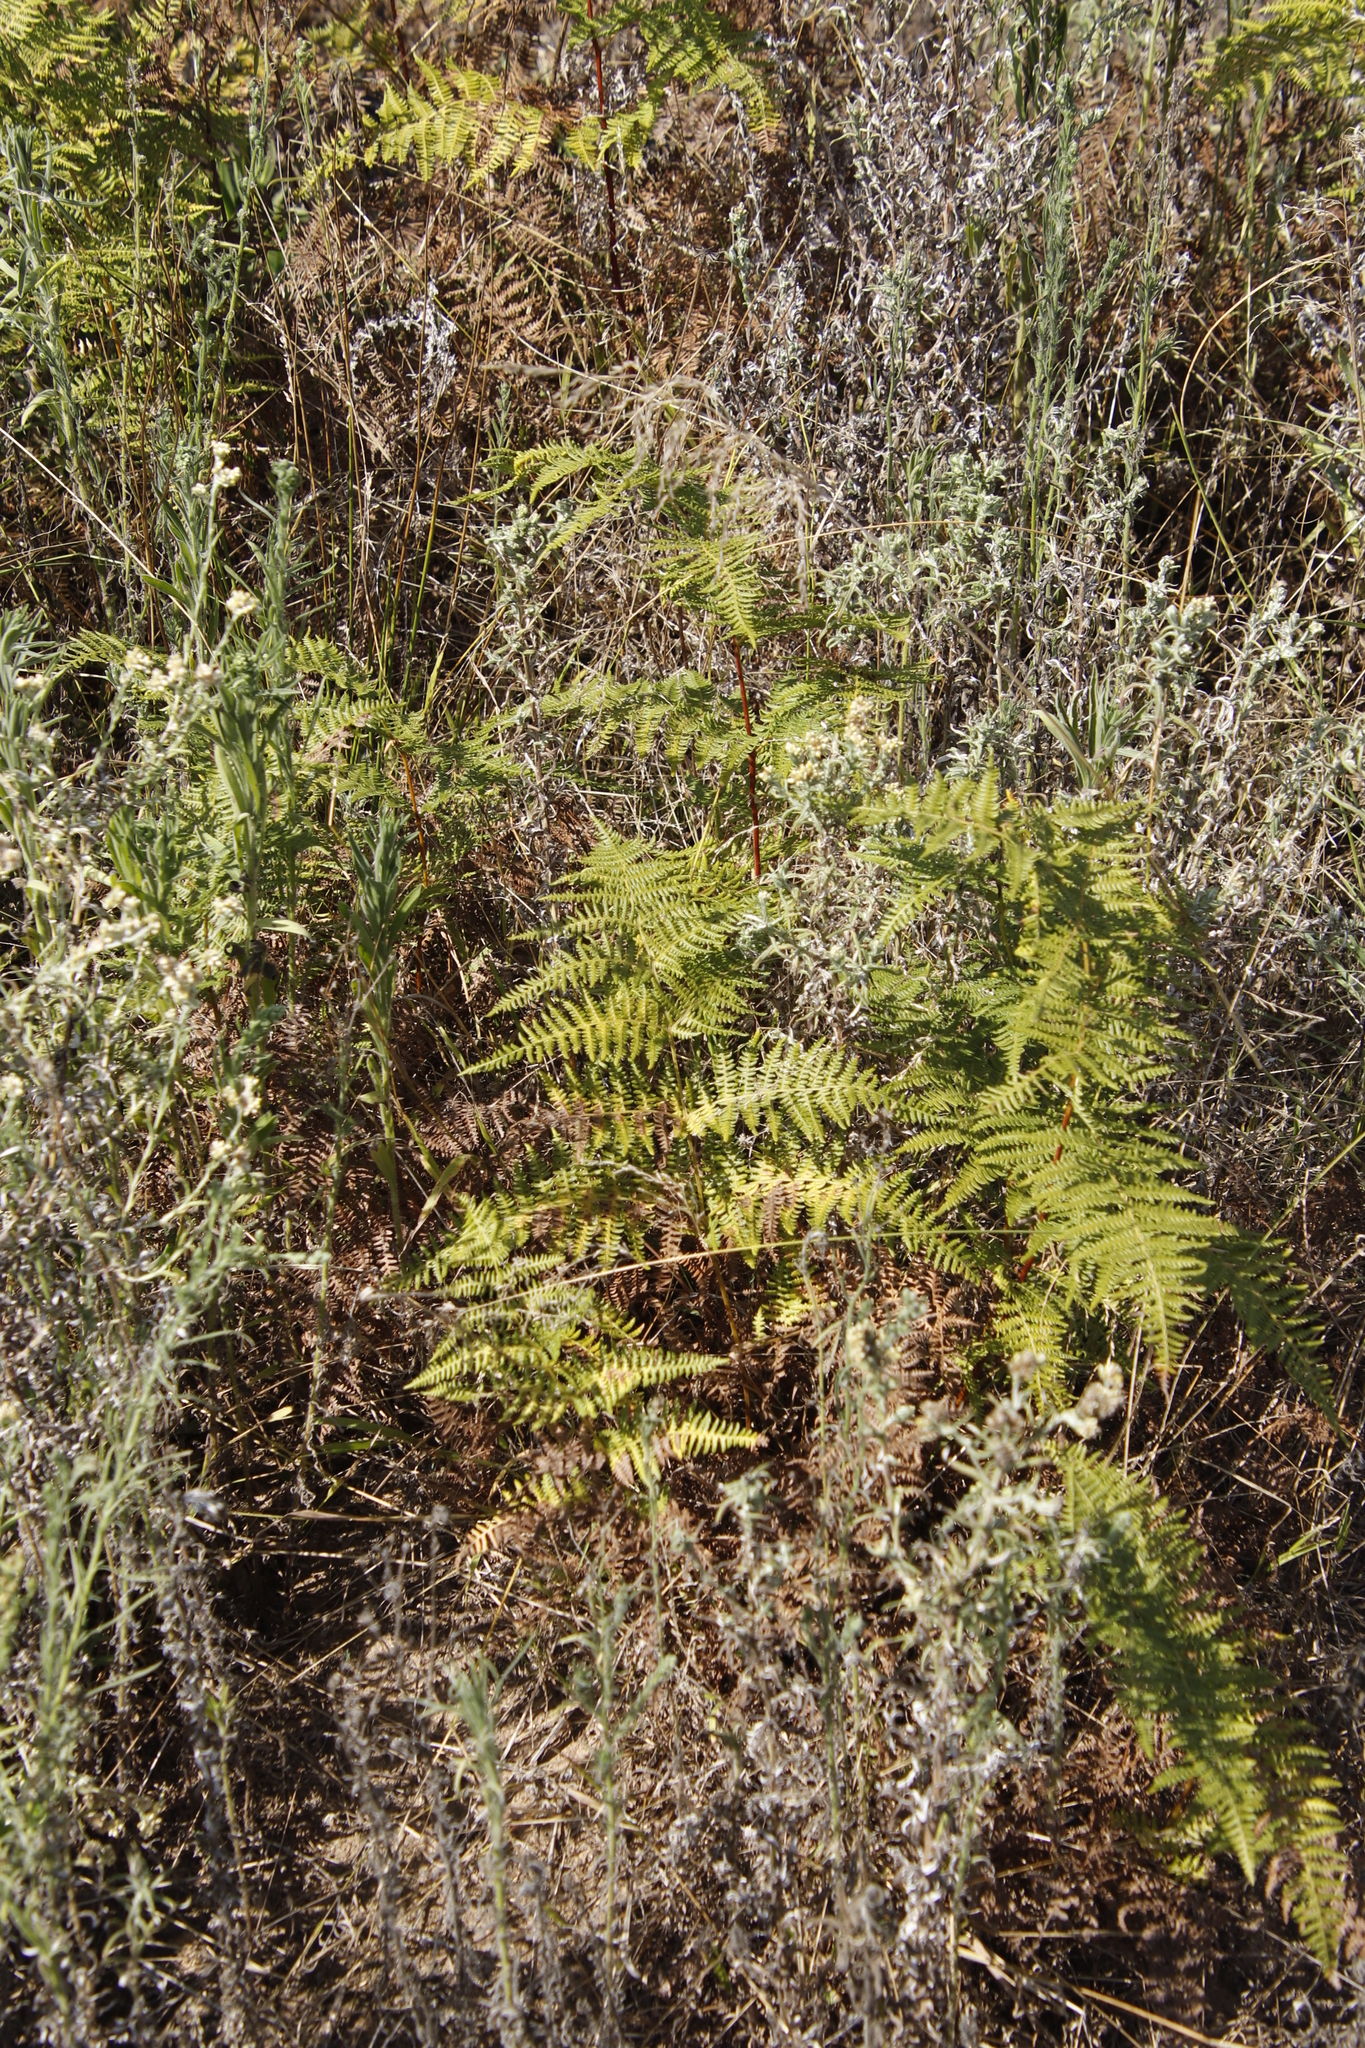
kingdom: Plantae
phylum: Tracheophyta
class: Polypodiopsida
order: Polypodiales
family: Dennstaedtiaceae
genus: Pteridium
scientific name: Pteridium aquilinum
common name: Bracken
